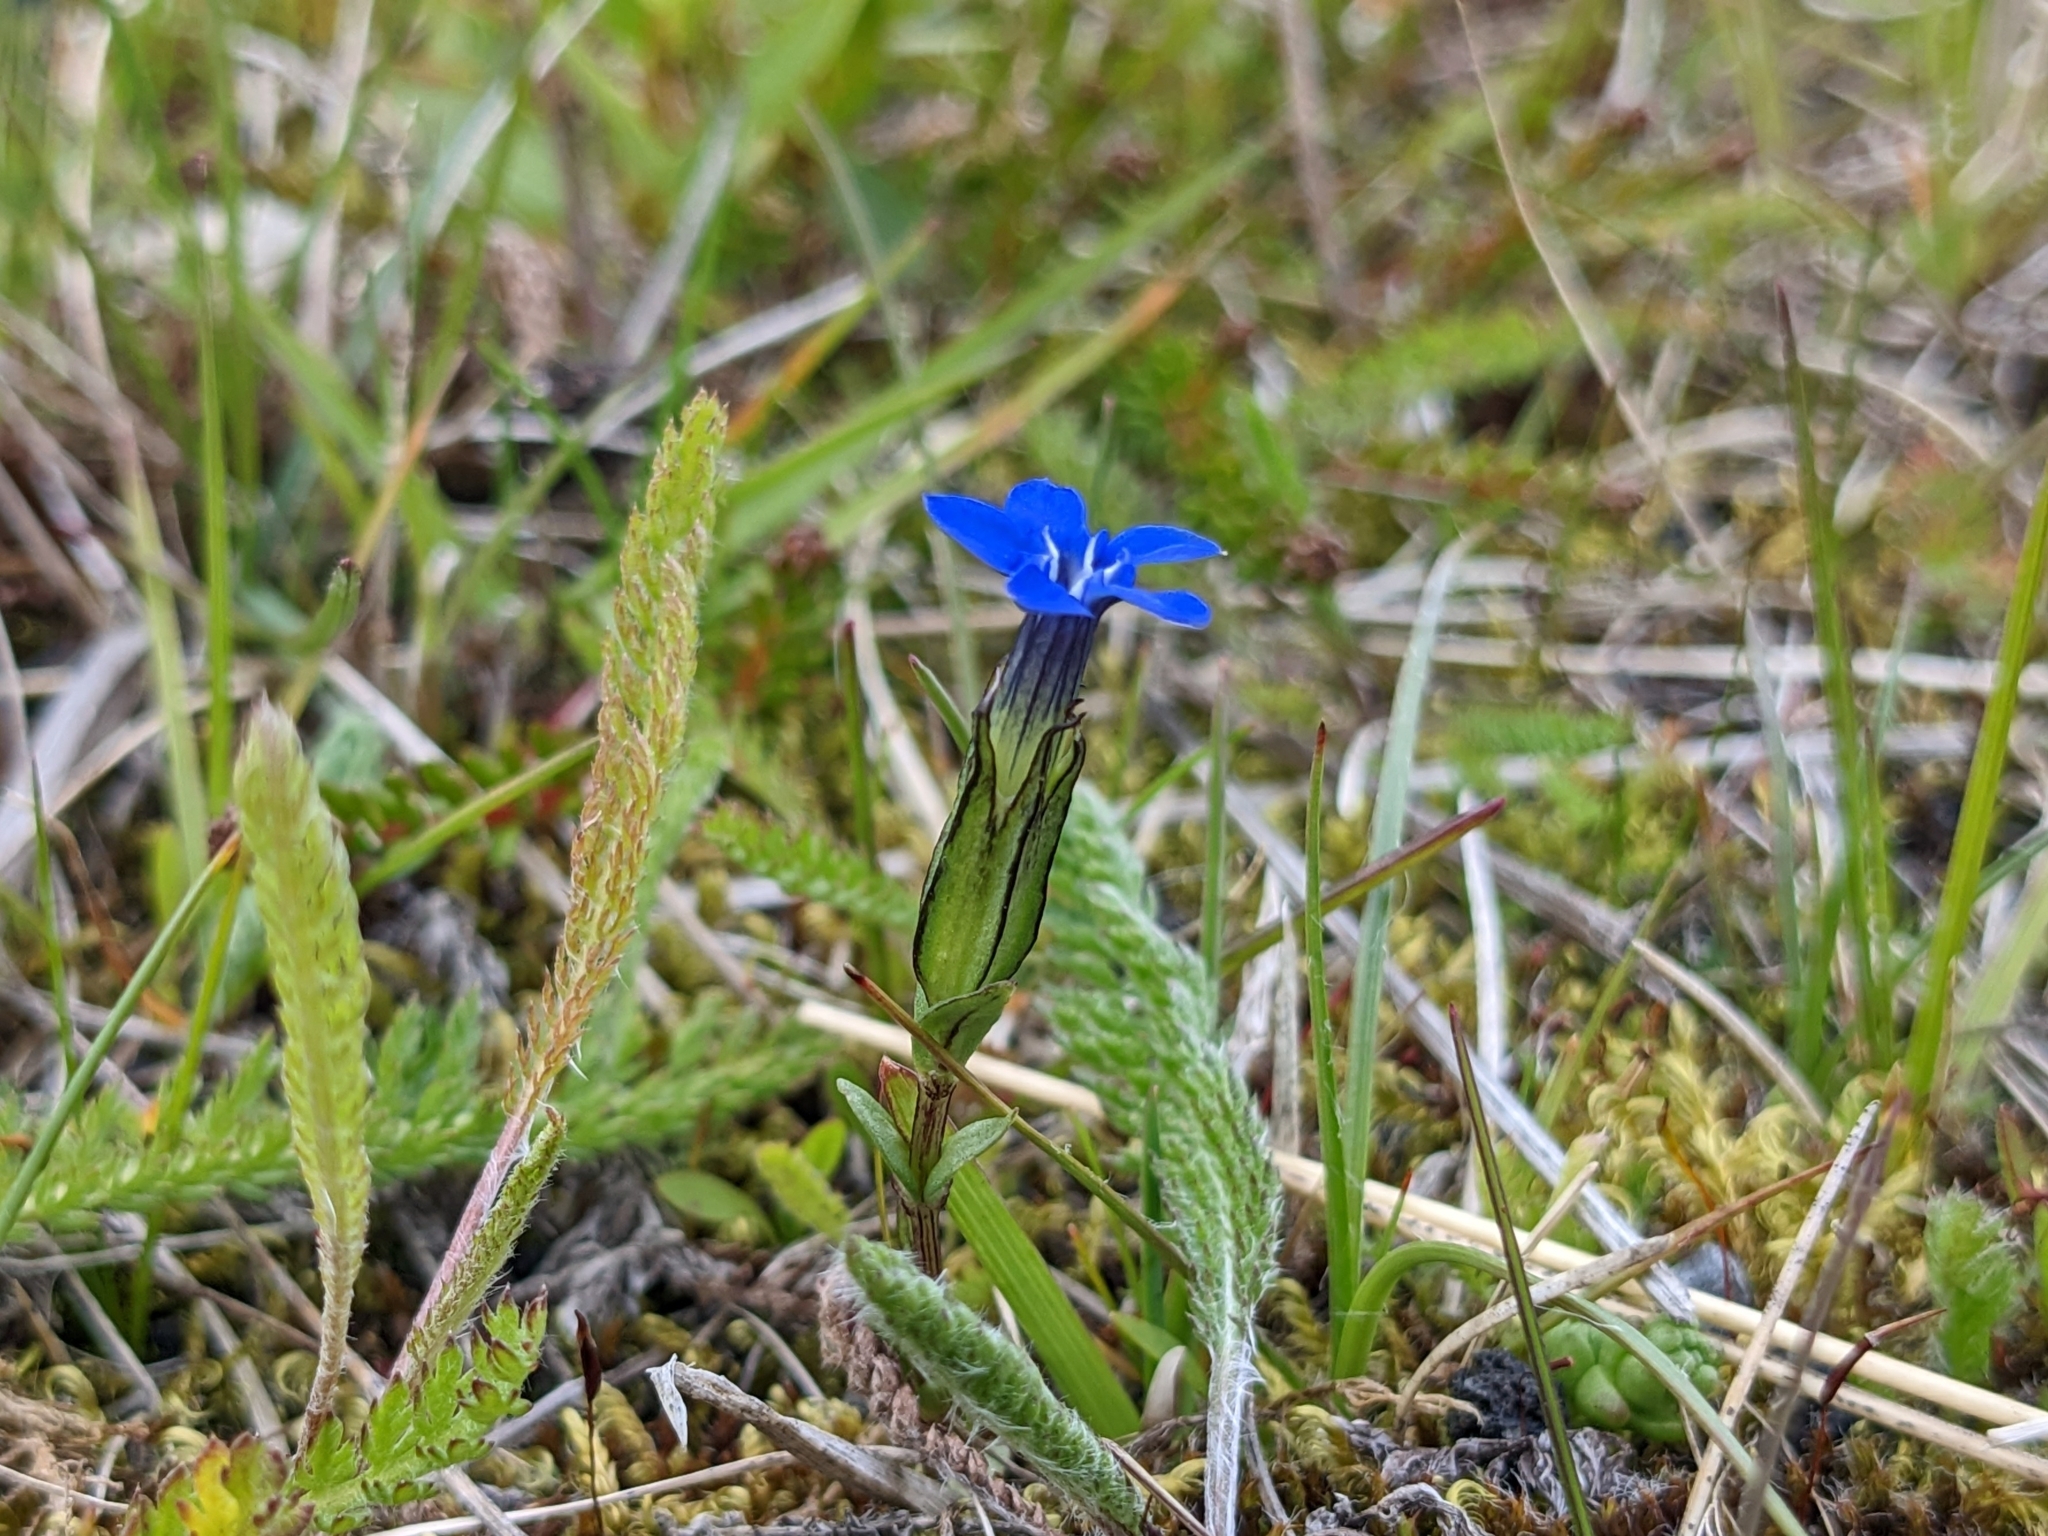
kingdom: Plantae
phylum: Tracheophyta
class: Magnoliopsida
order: Gentianales
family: Gentianaceae
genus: Gentiana
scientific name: Gentiana nivalis
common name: Alpine gentian
